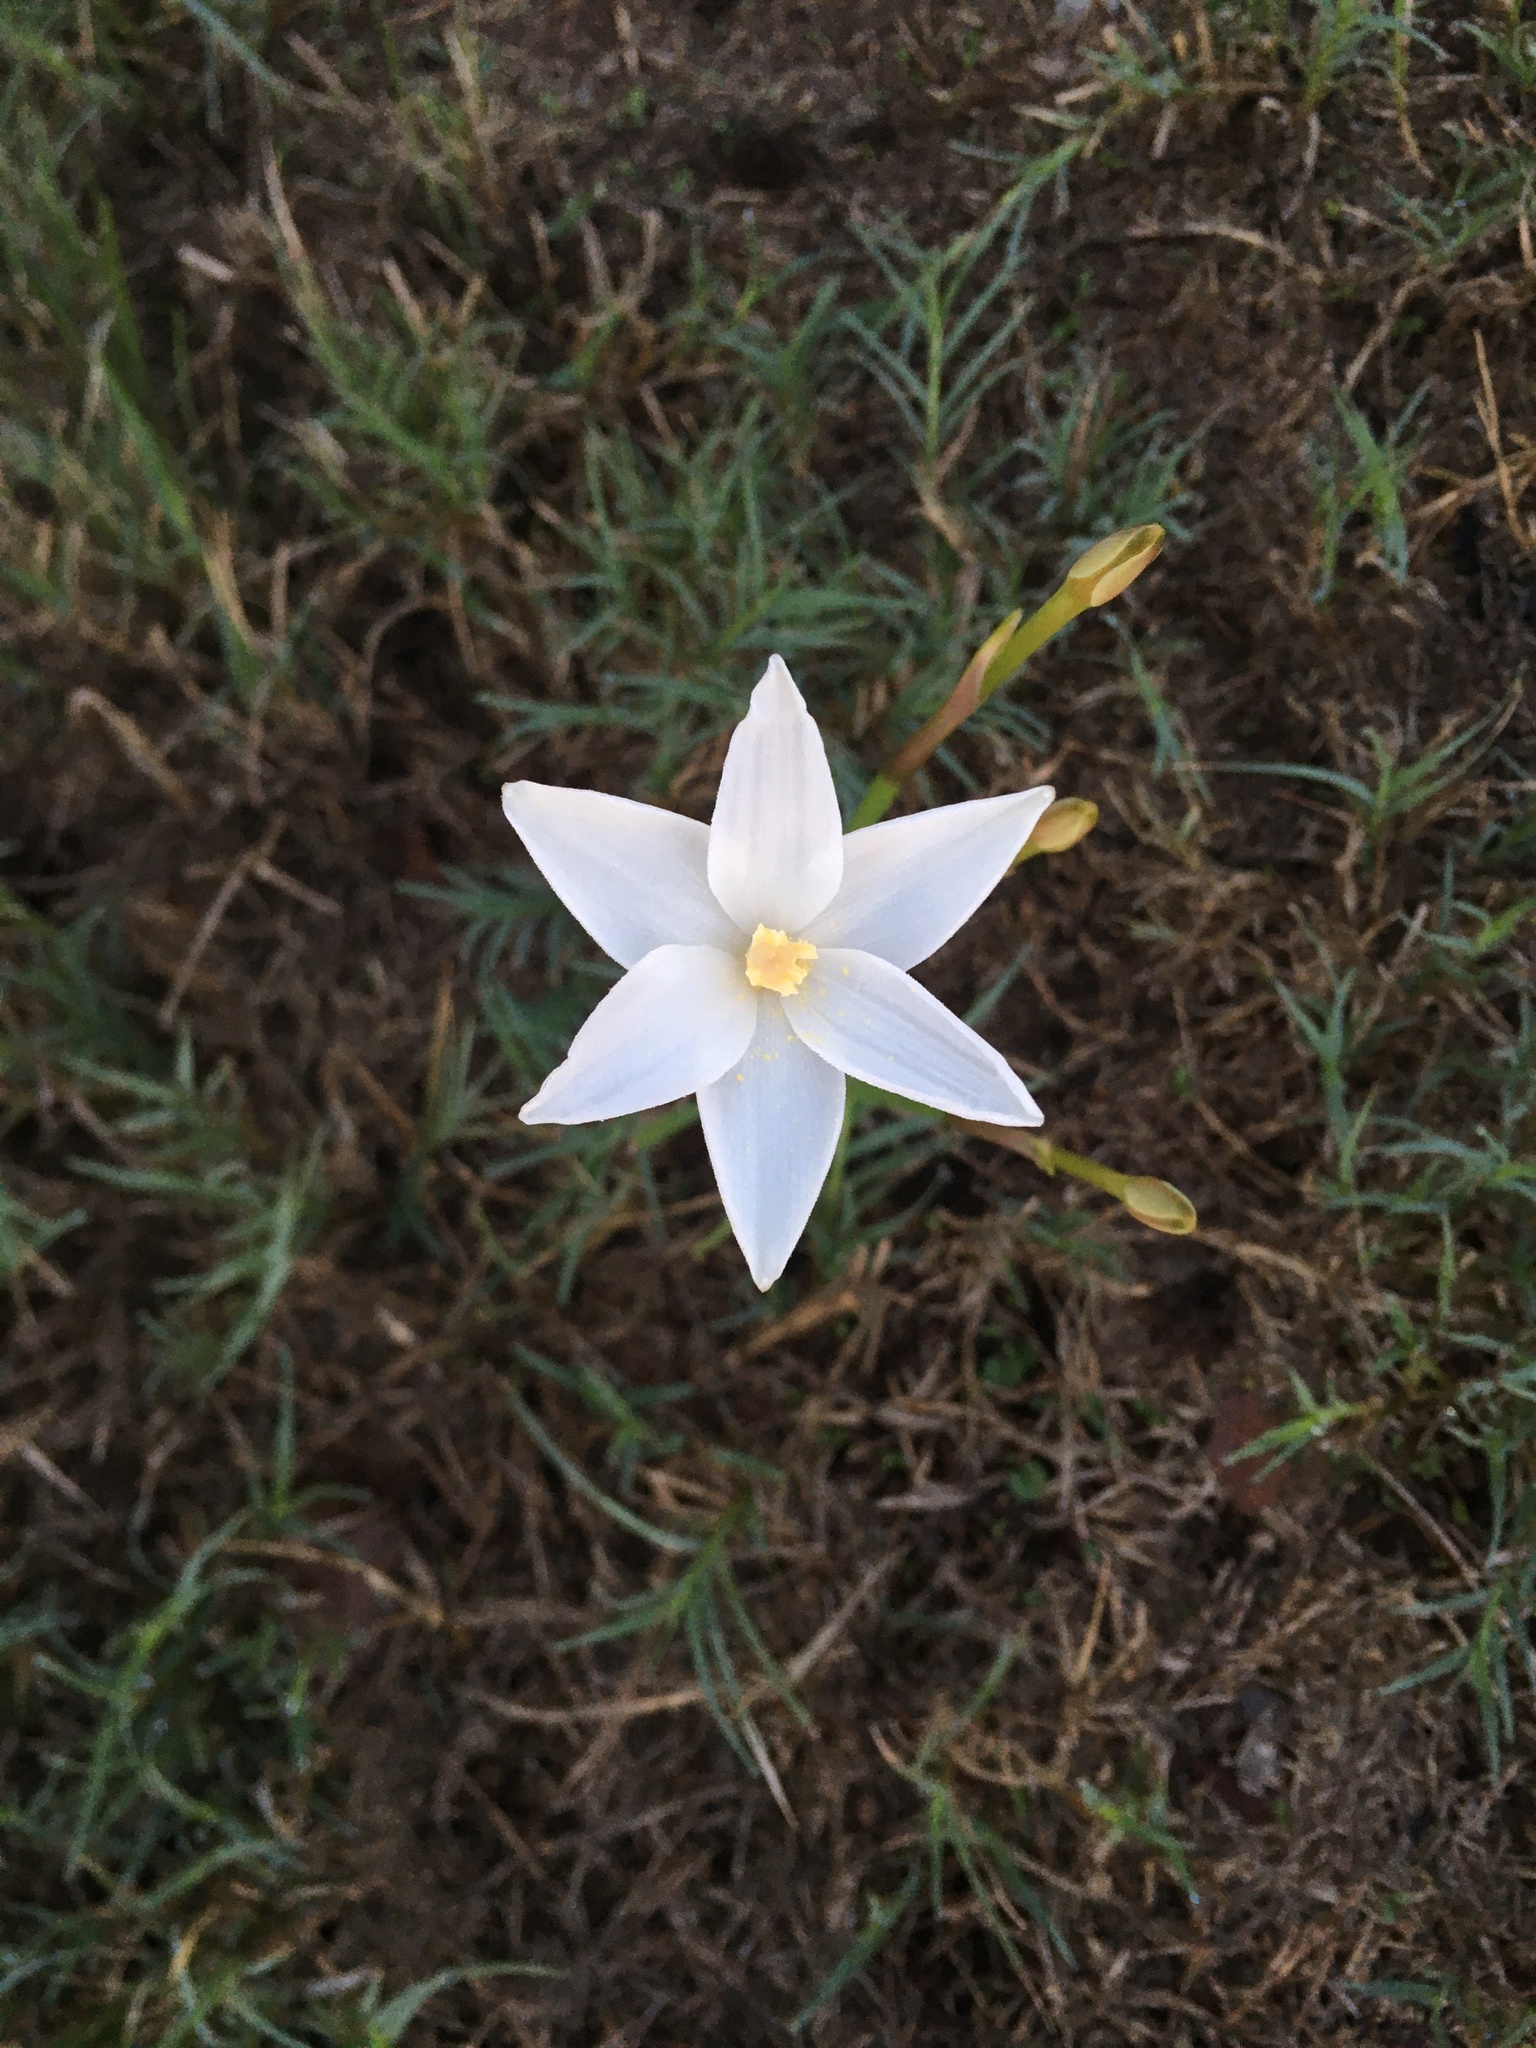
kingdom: Plantae
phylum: Tracheophyta
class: Liliopsida
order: Asparagales
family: Amaryllidaceae
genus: Zephyranthes
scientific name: Zephyranthes chlorosolen
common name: Evening rain-lily
